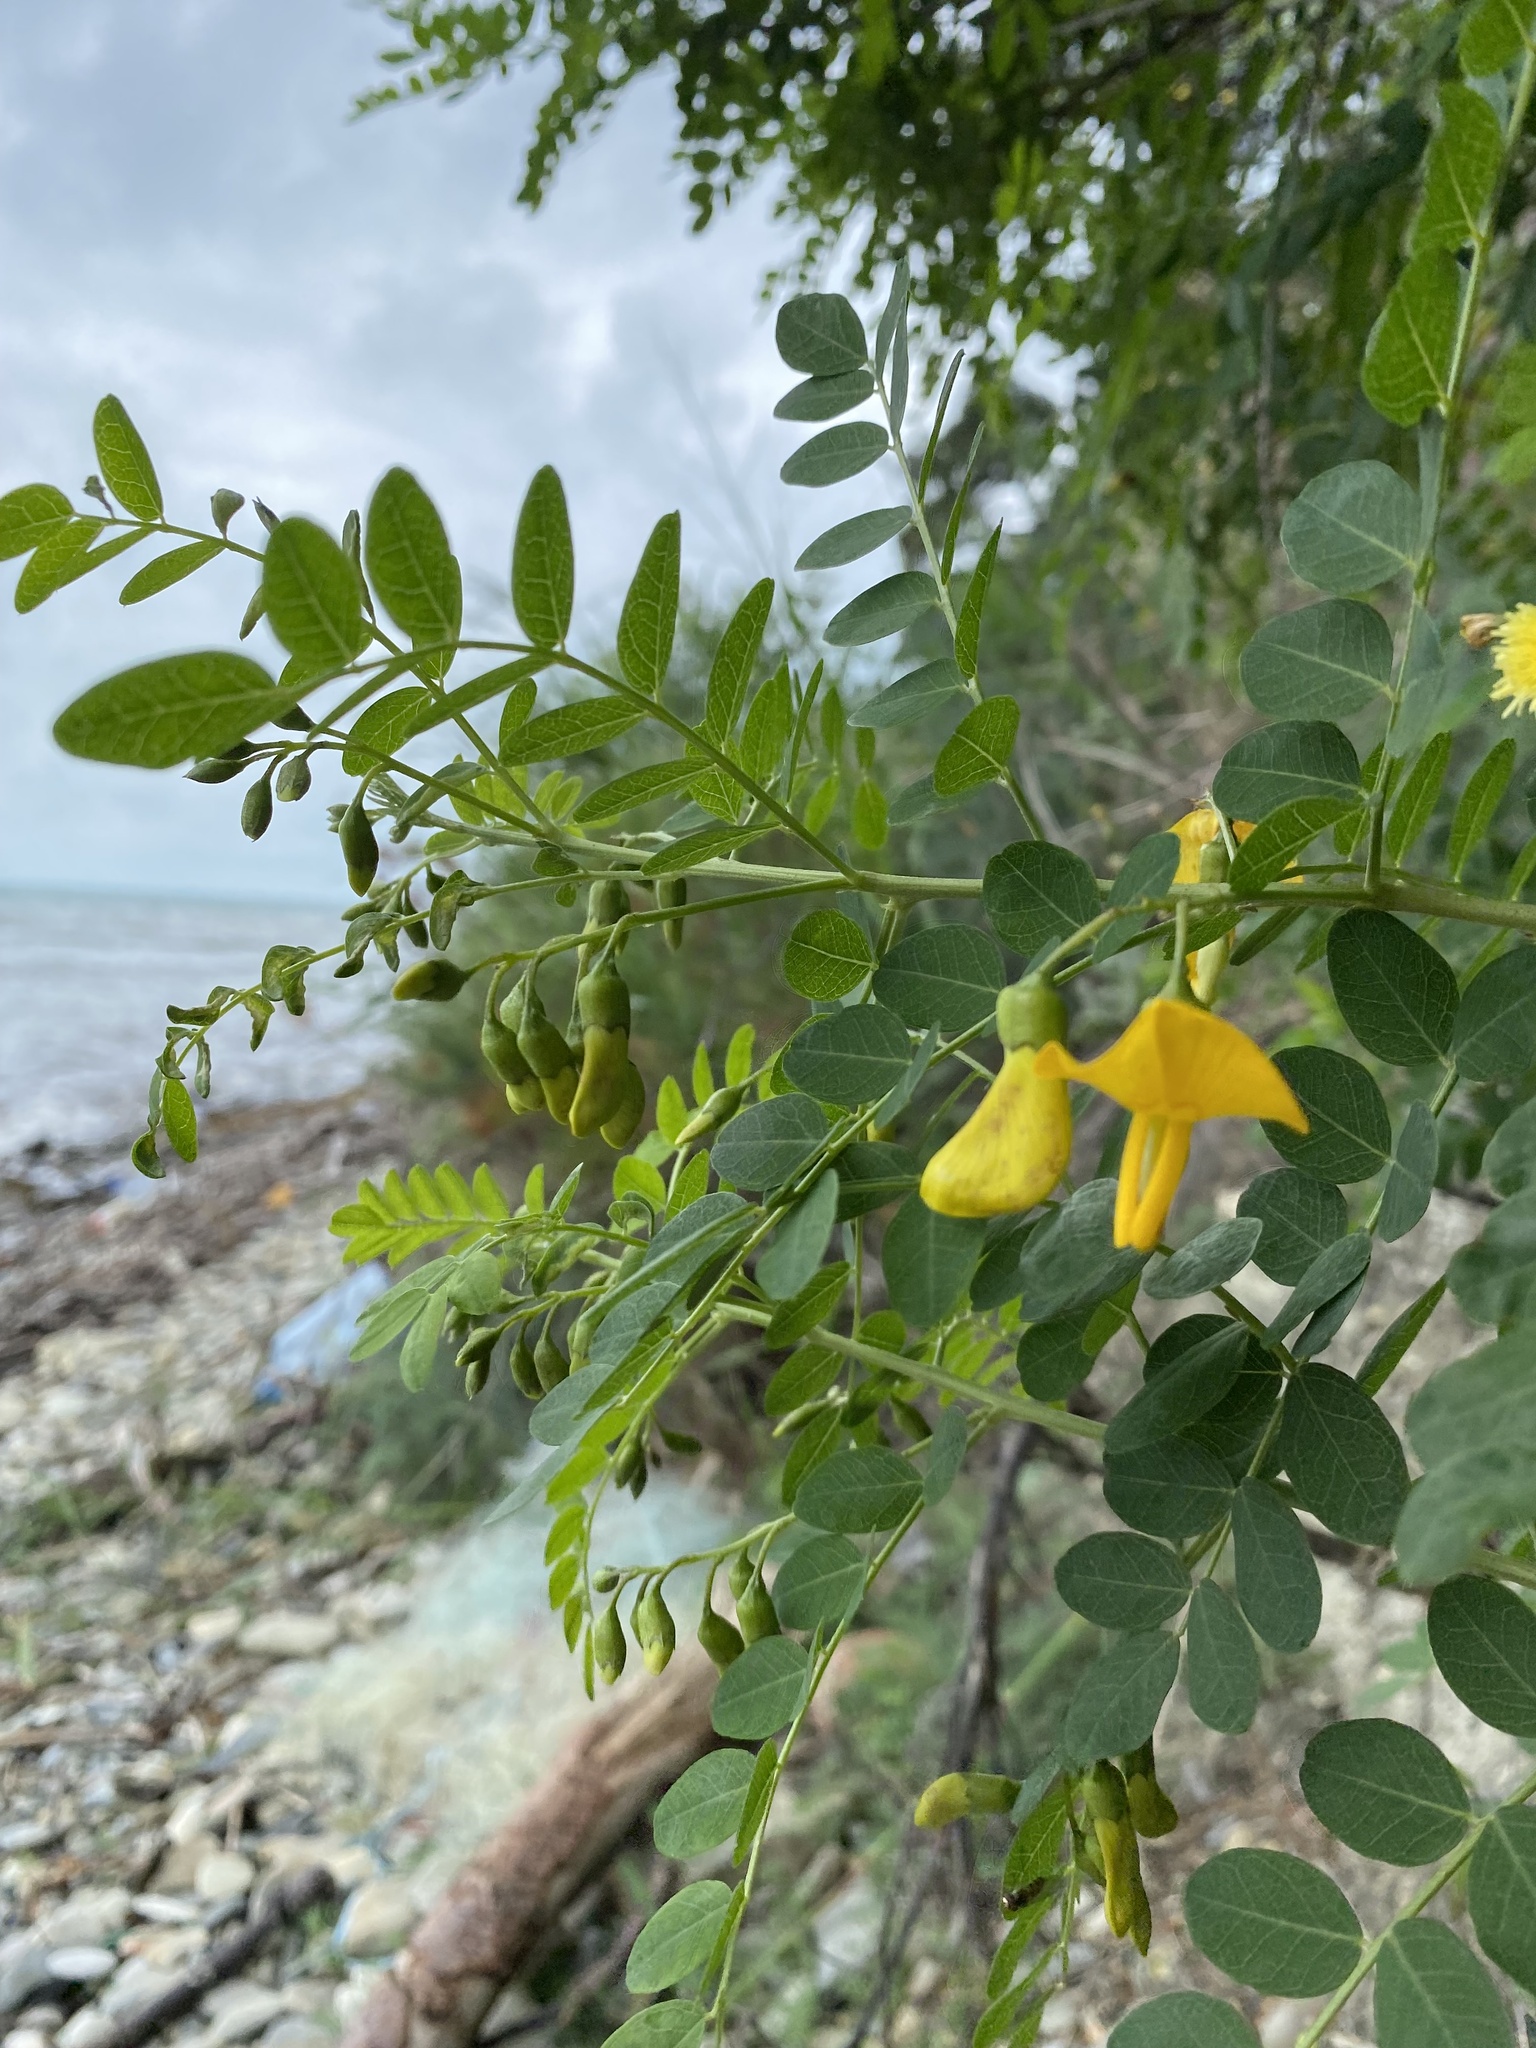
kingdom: Plantae
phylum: Tracheophyta
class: Magnoliopsida
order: Fabales
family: Fabaceae
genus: Colutea
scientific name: Colutea cilicica
